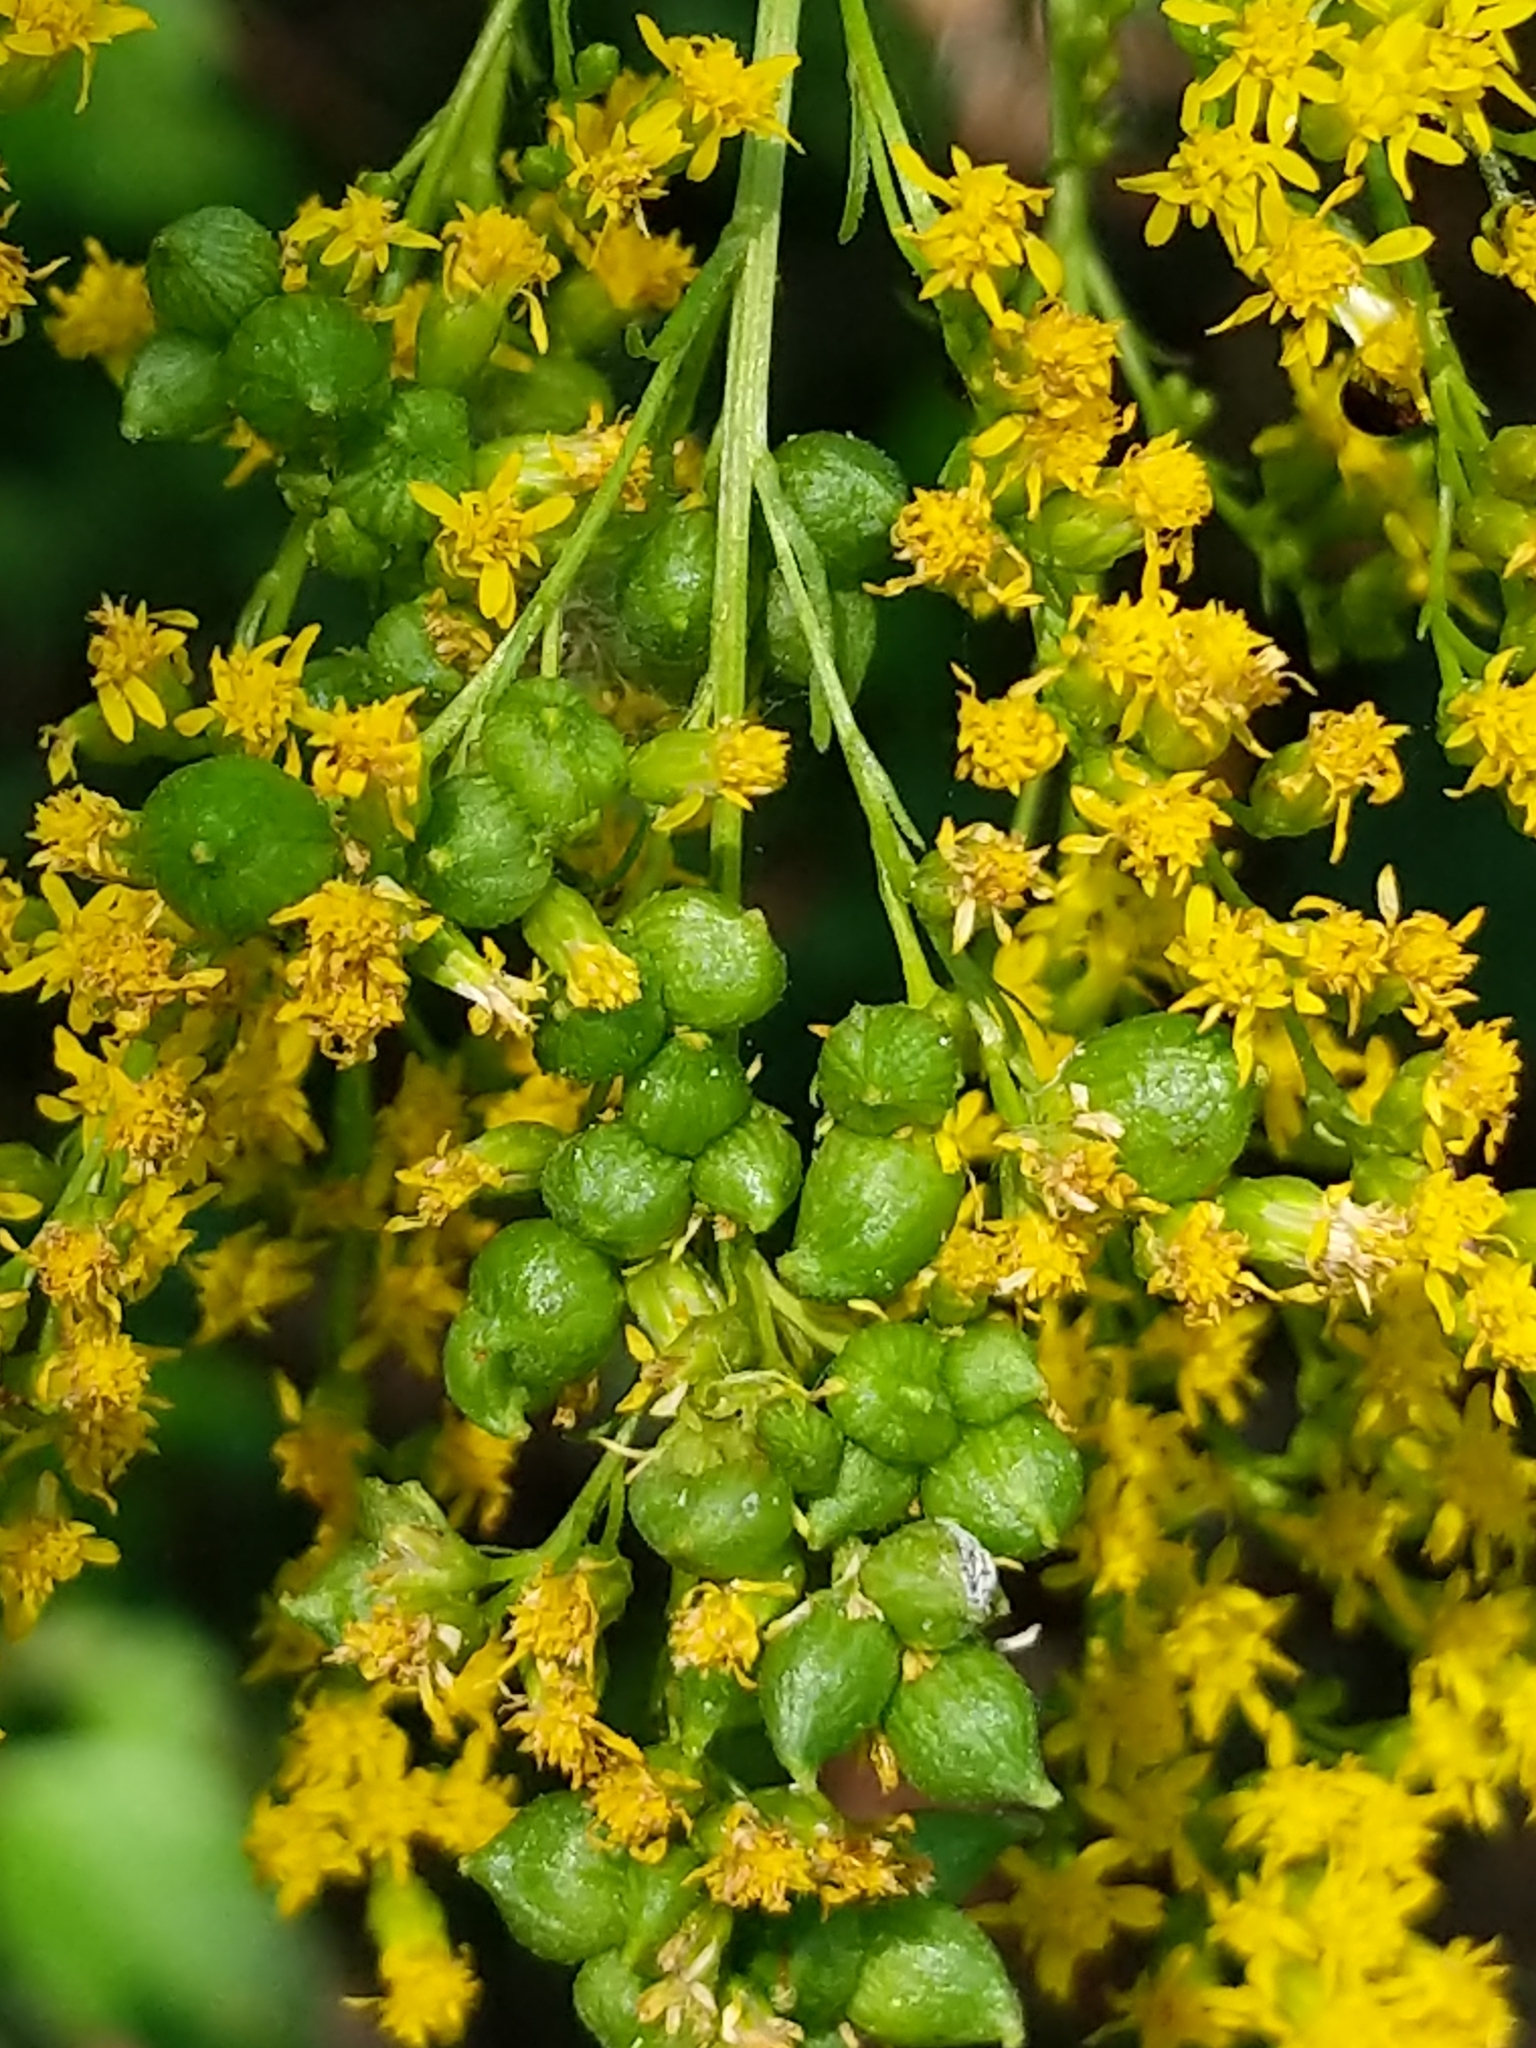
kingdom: Animalia
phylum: Arthropoda
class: Insecta
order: Diptera
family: Cecidomyiidae
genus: Schizomyia
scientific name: Schizomyia racemicola
